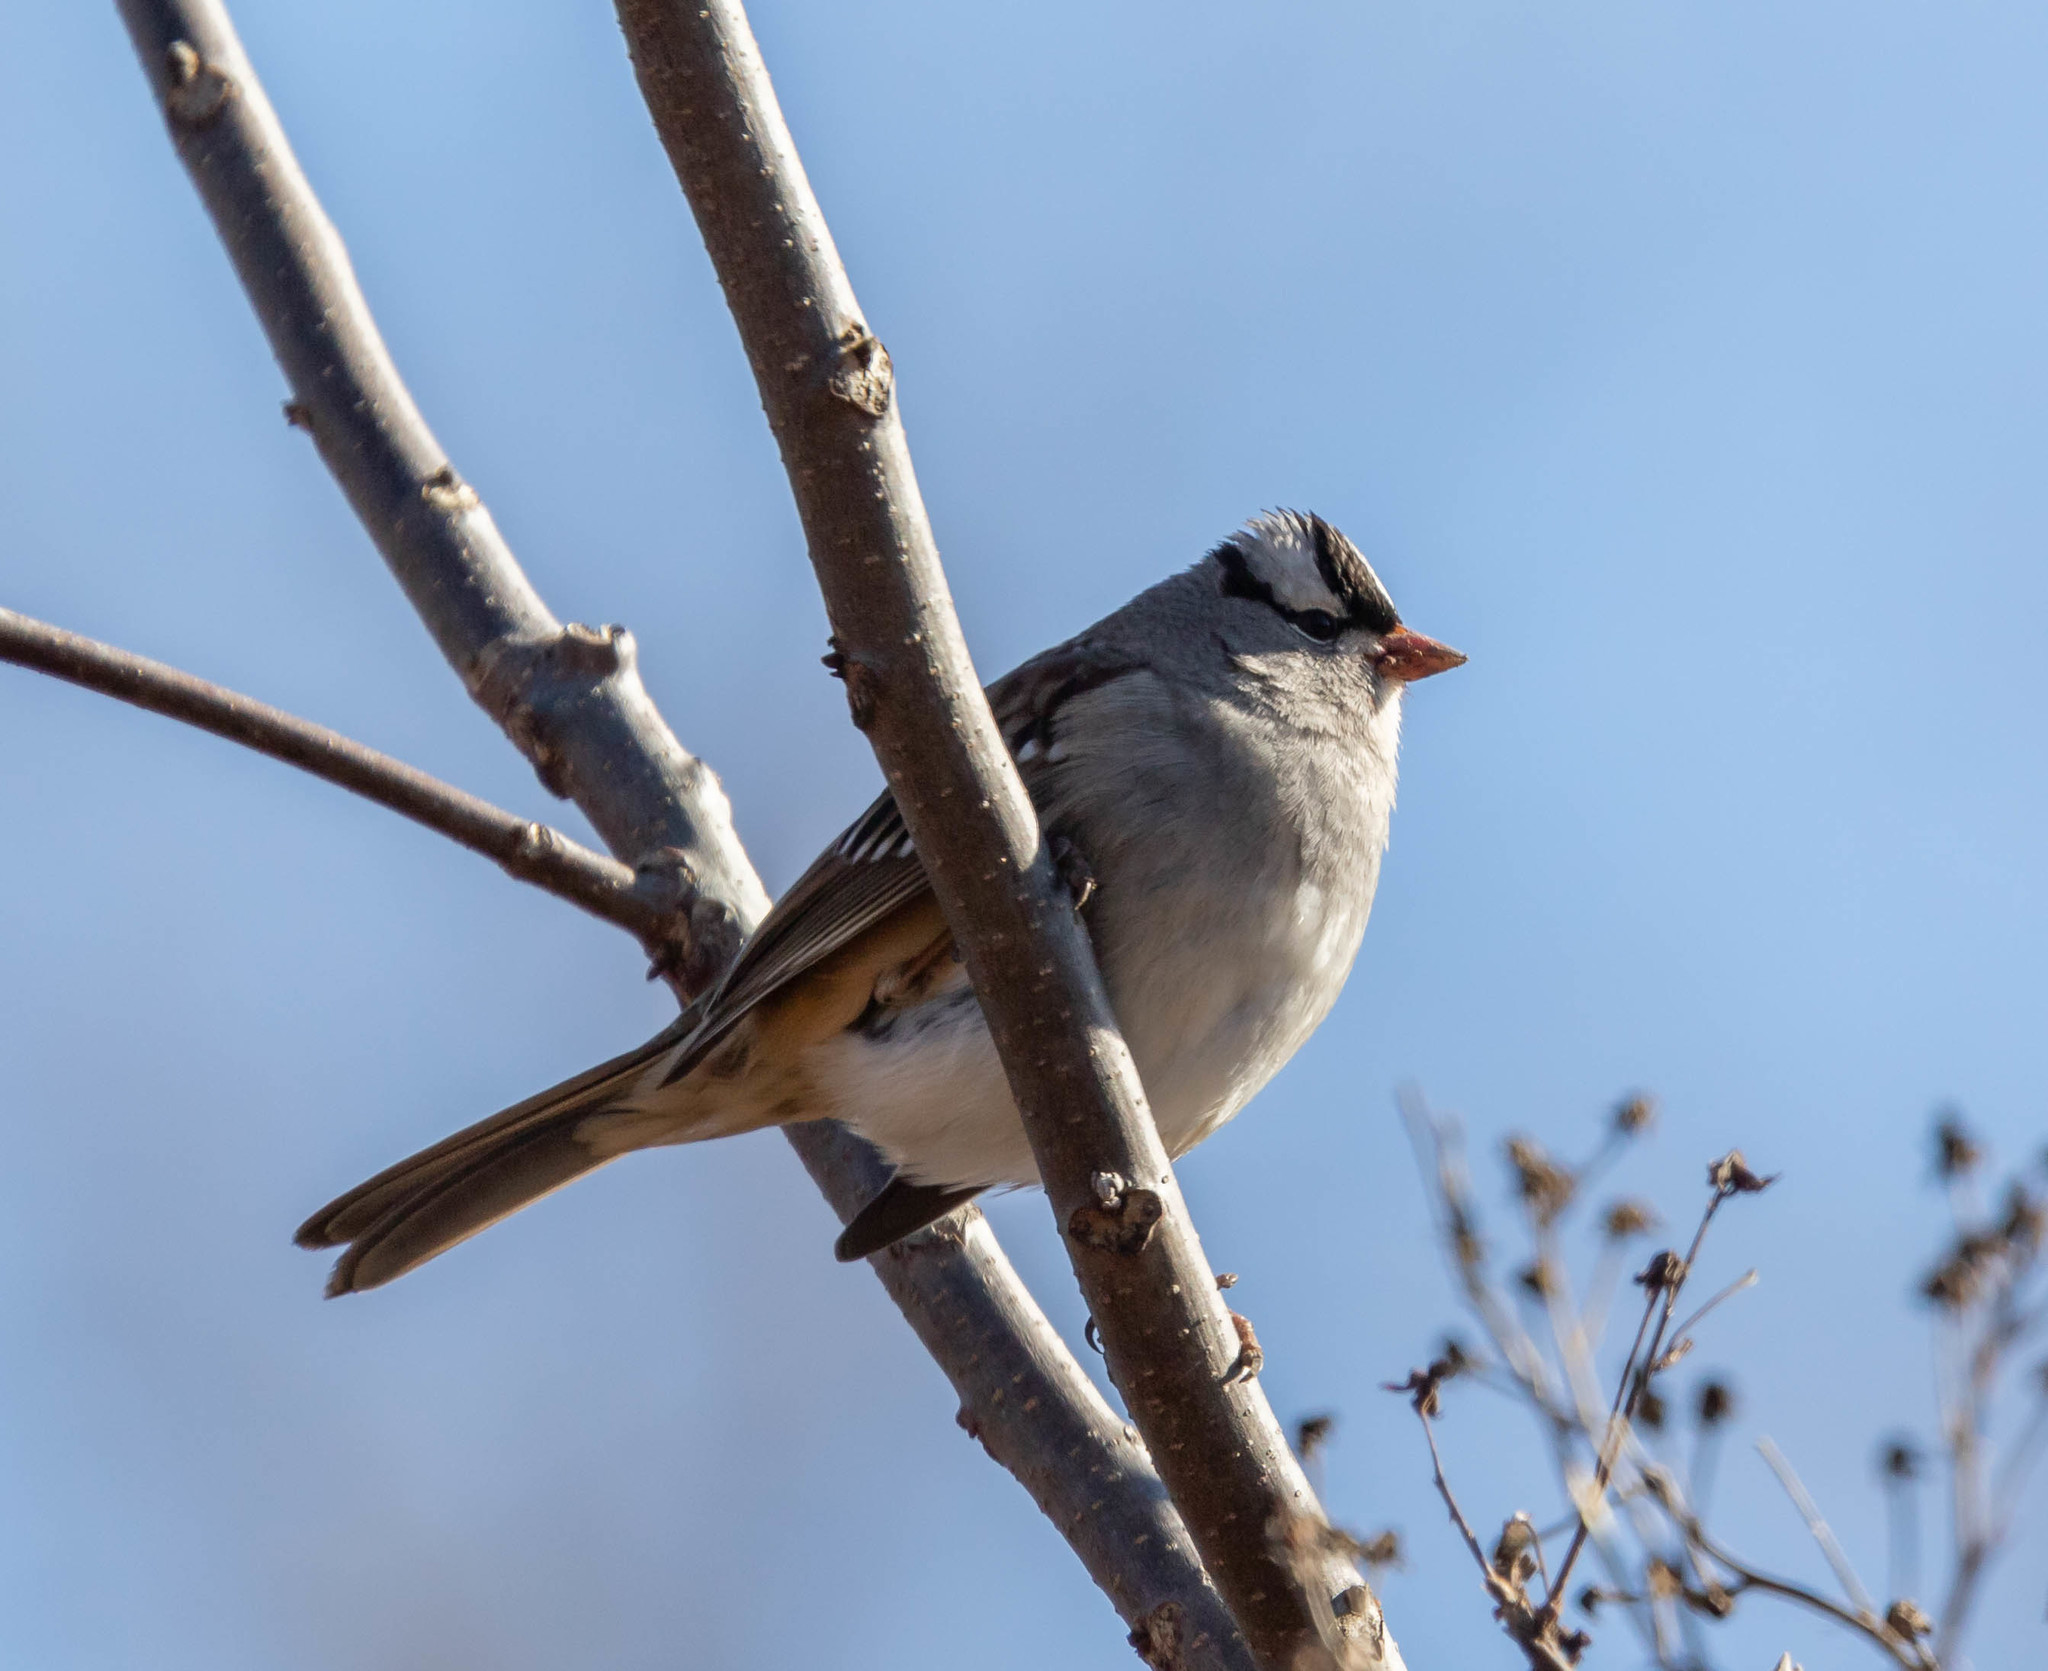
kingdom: Animalia
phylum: Chordata
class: Aves
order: Passeriformes
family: Passerellidae
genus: Zonotrichia
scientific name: Zonotrichia leucophrys
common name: White-crowned sparrow
